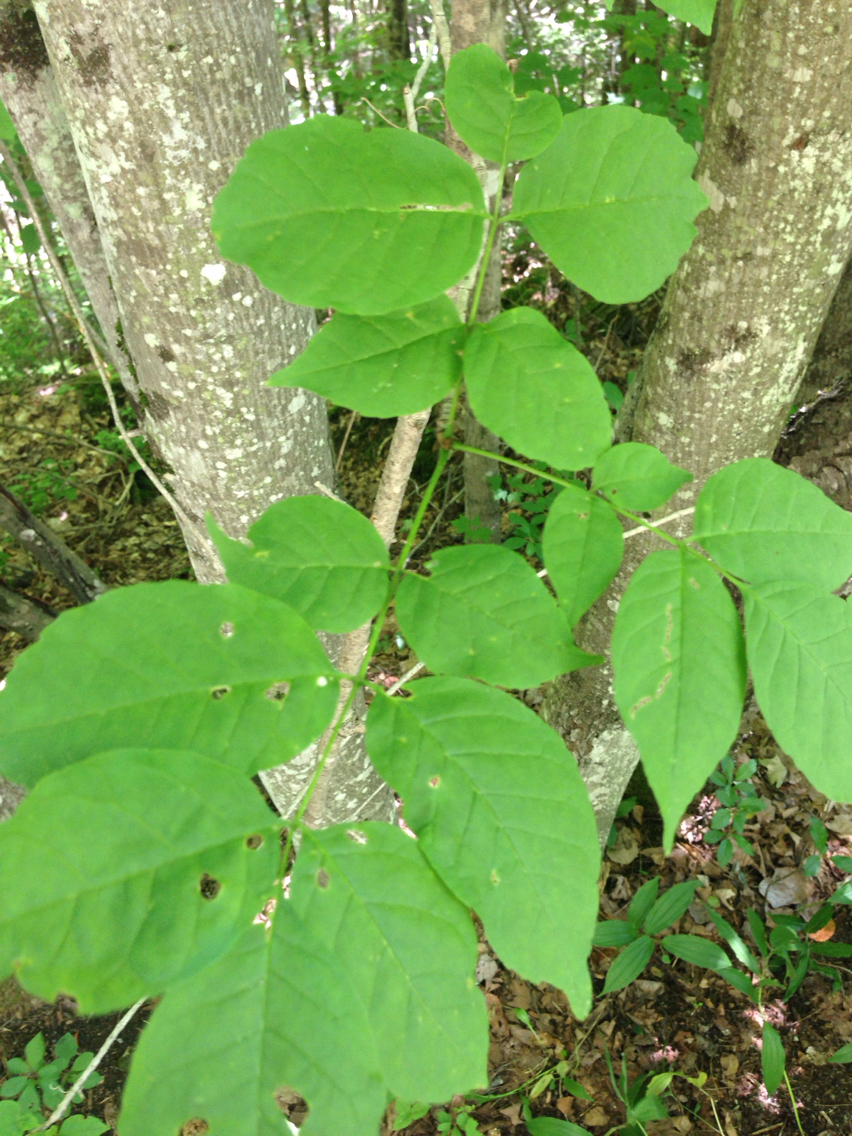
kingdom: Plantae
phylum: Tracheophyta
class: Magnoliopsida
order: Lamiales
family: Oleaceae
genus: Fraxinus
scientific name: Fraxinus americana
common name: White ash
